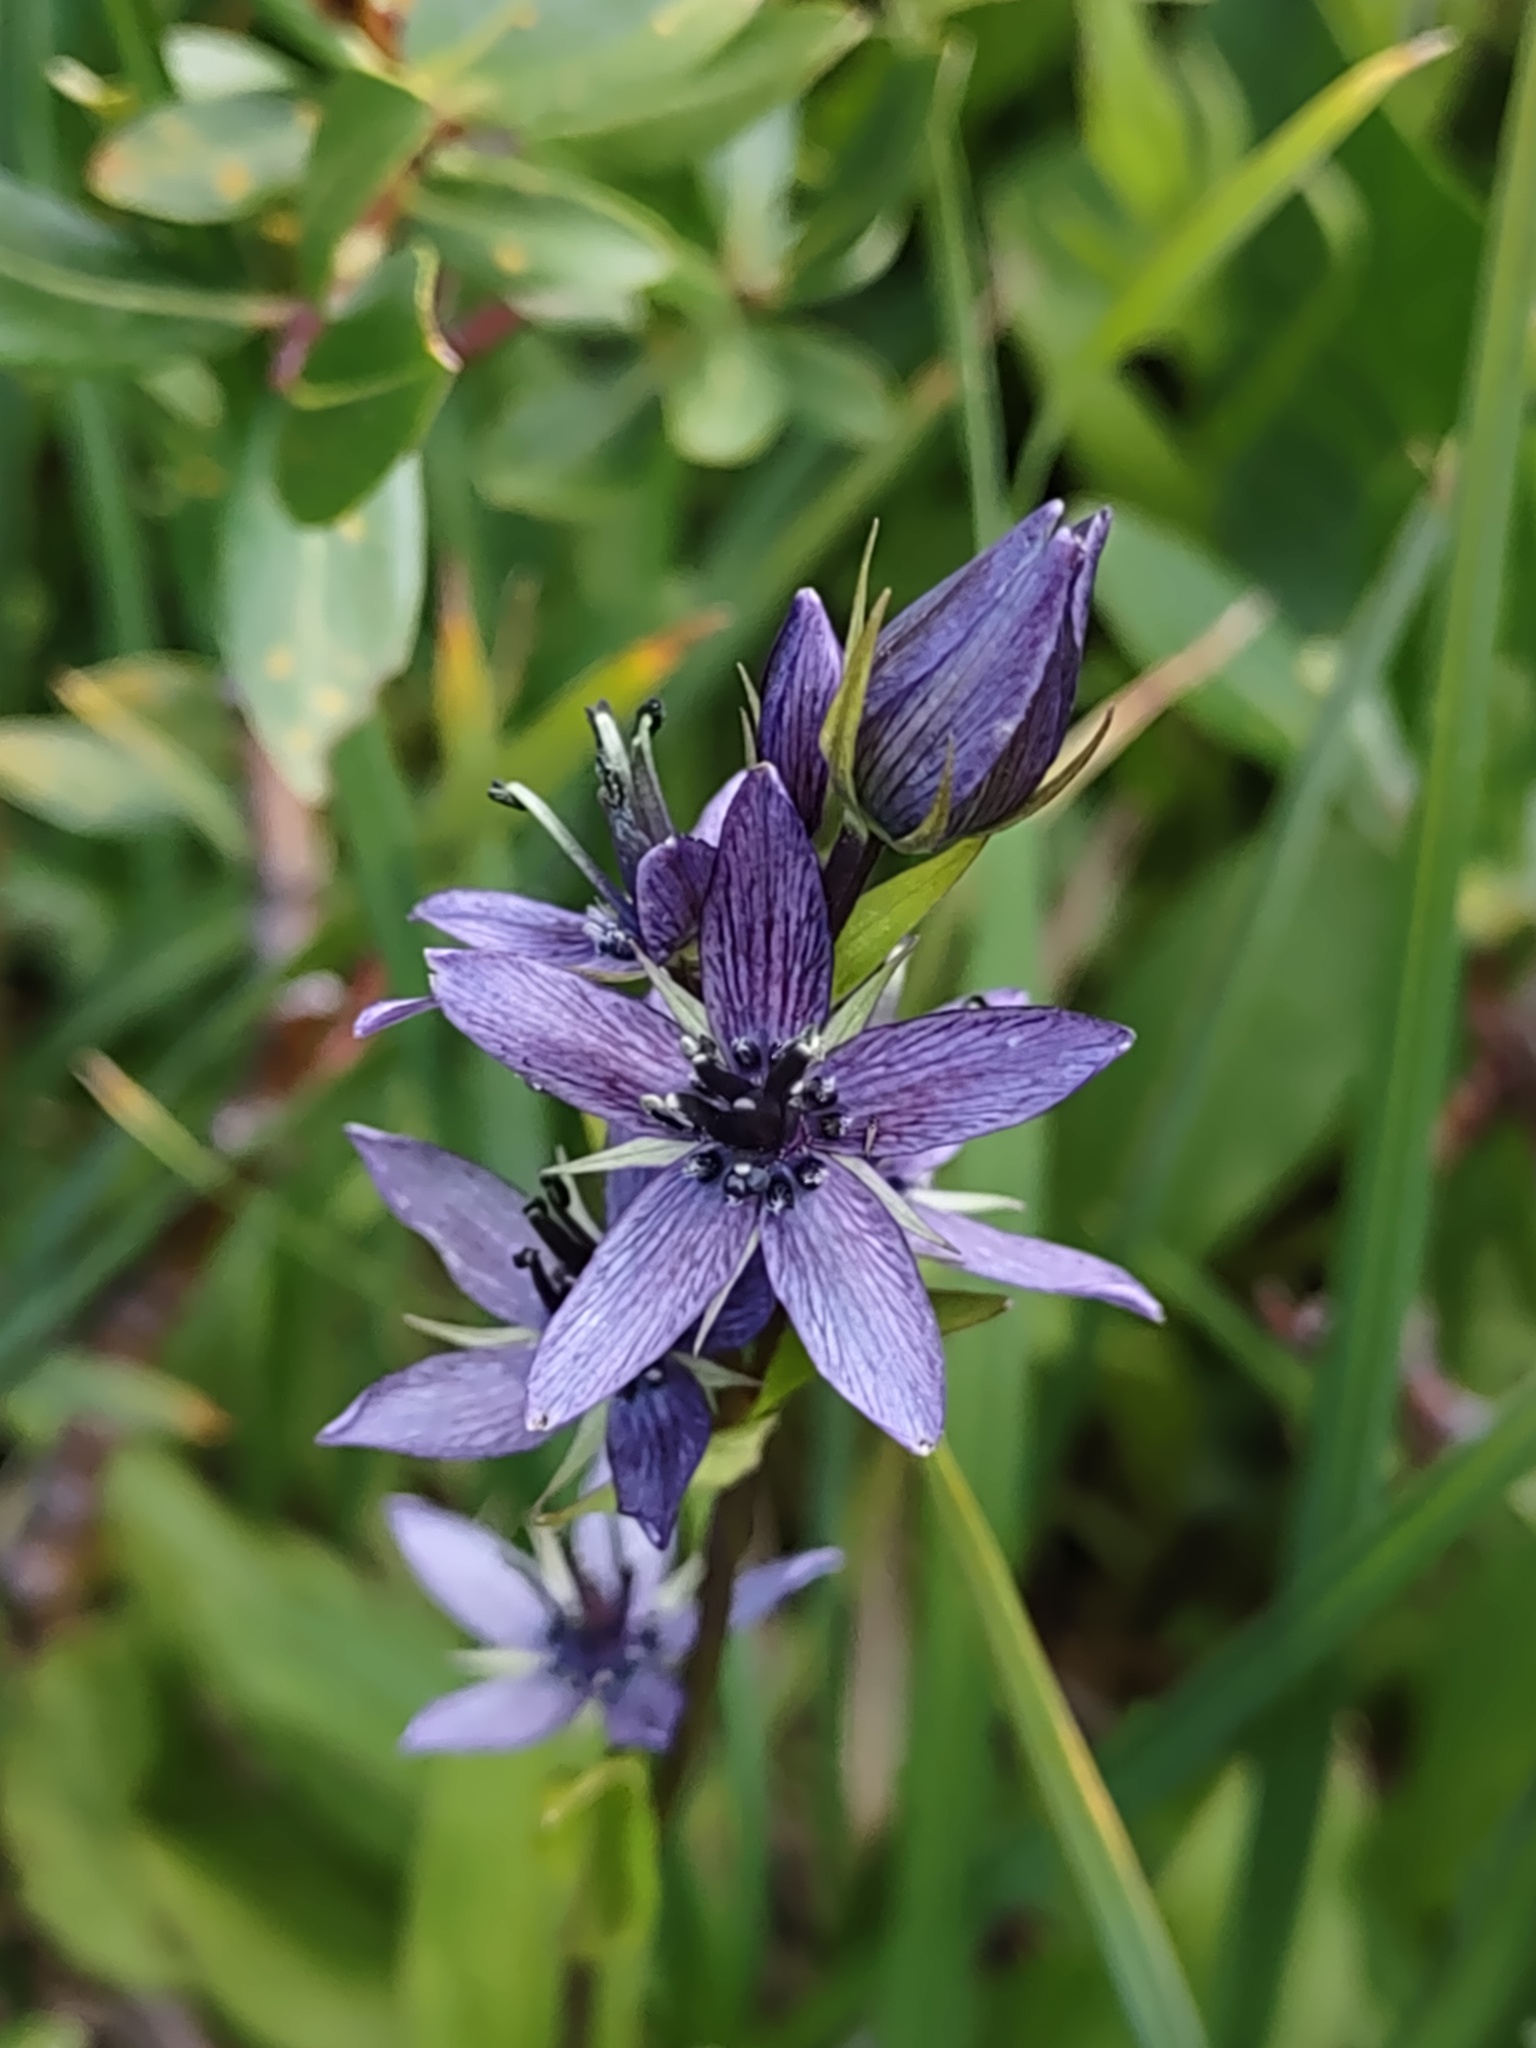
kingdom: Plantae
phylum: Tracheophyta
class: Magnoliopsida
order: Gentianales
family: Gentianaceae
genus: Swertia
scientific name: Swertia perennis
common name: Alpine bog swertia
